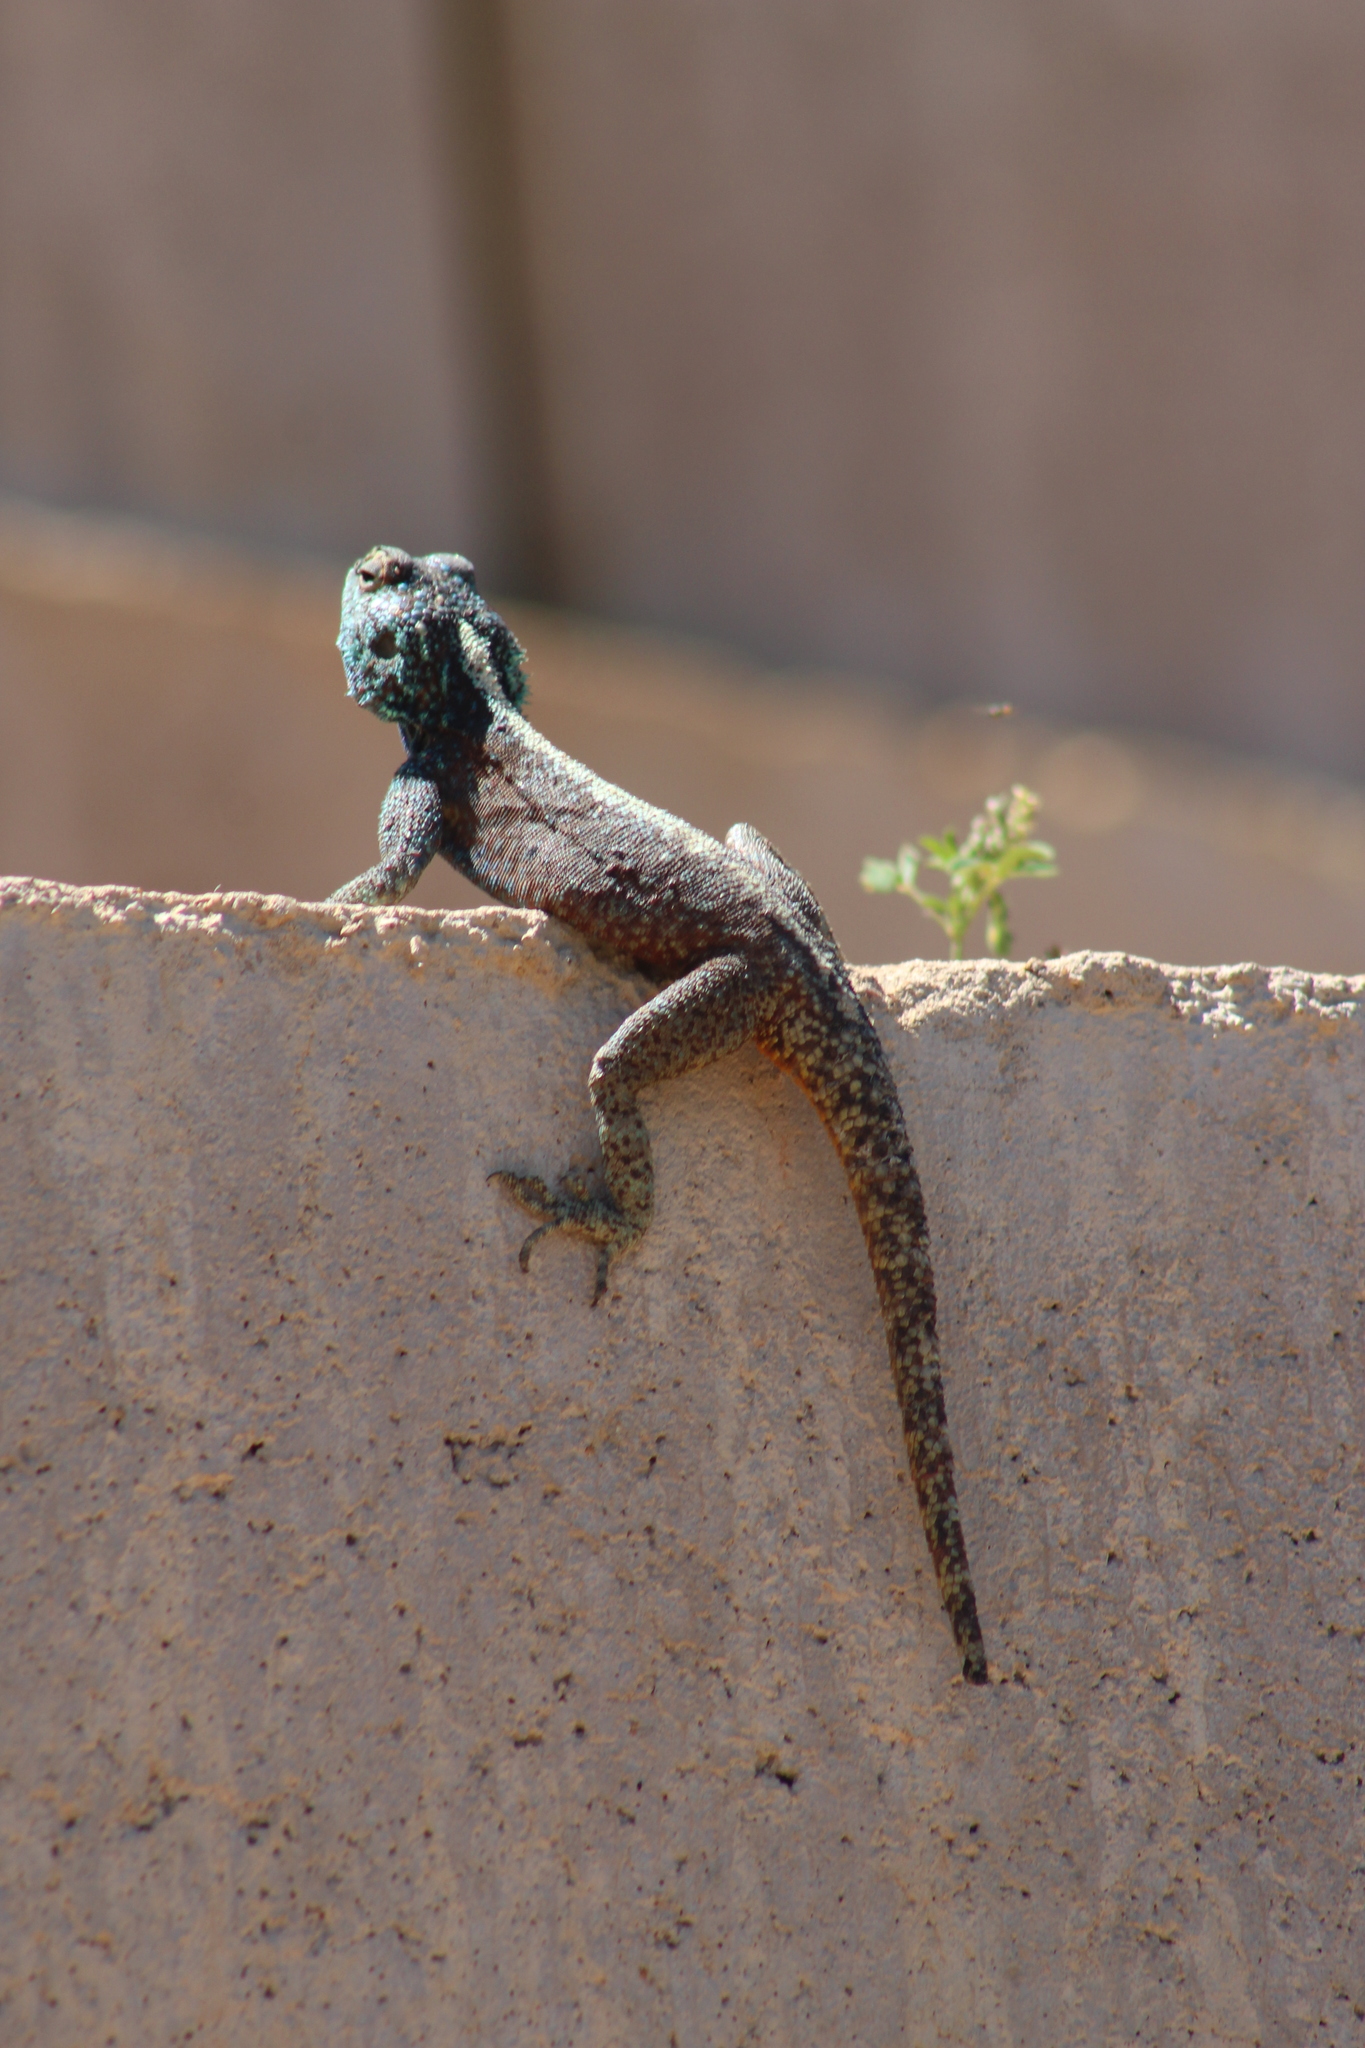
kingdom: Animalia
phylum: Chordata
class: Squamata
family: Agamidae
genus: Agama
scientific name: Agama atra
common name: Southern african rock agama
